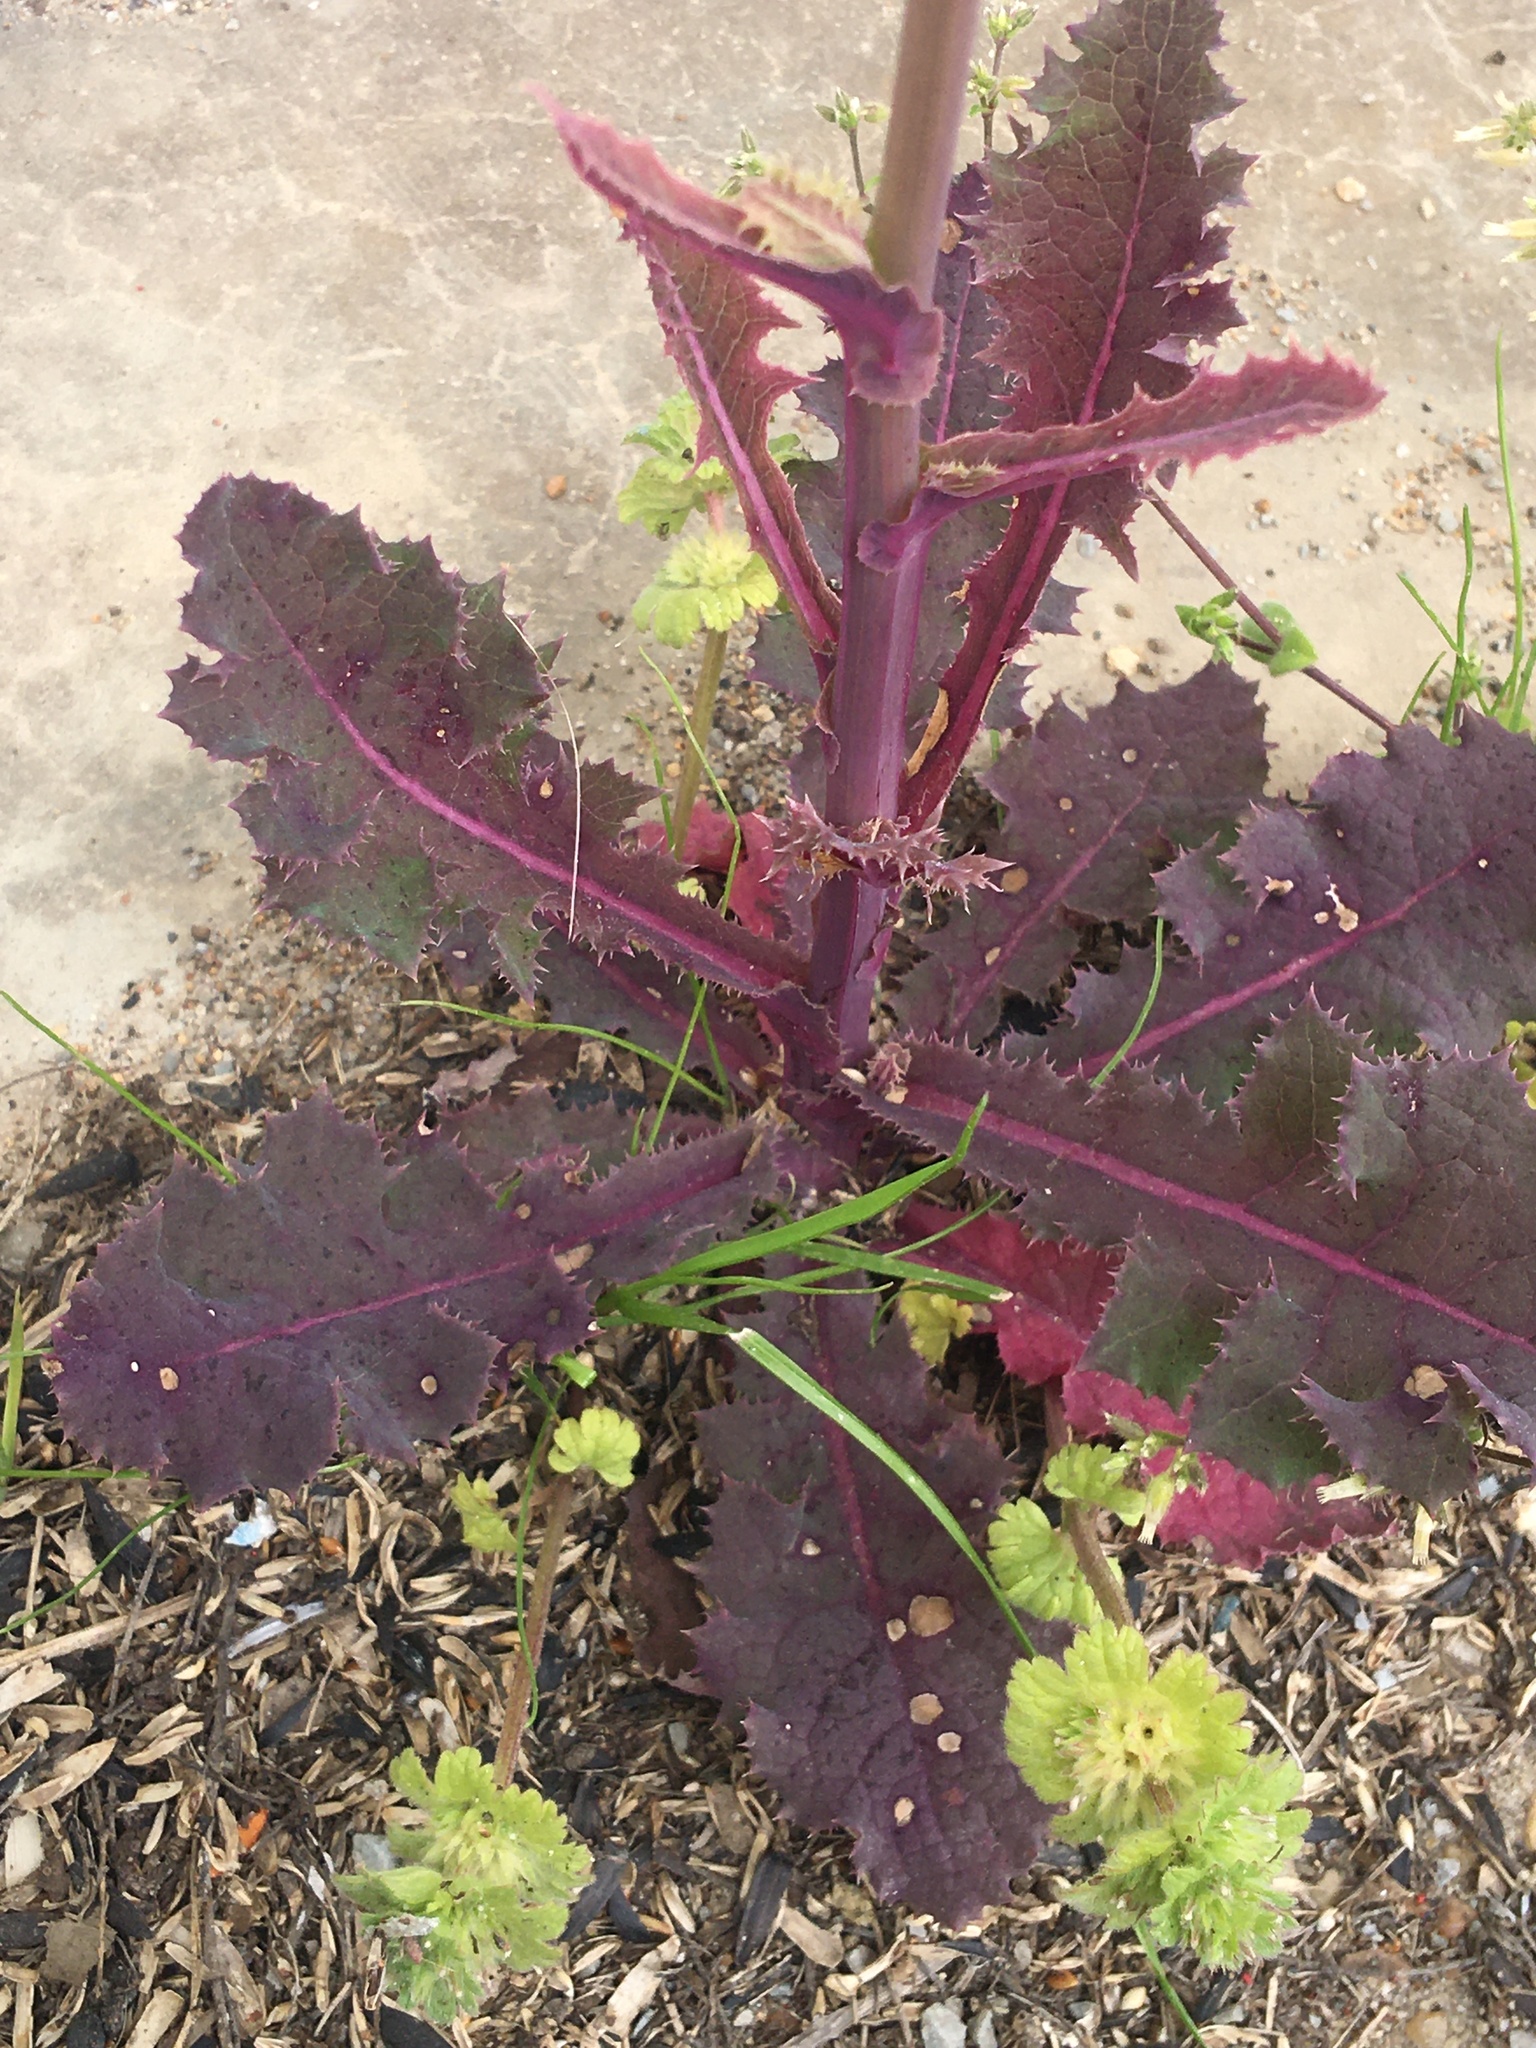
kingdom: Plantae
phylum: Tracheophyta
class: Magnoliopsida
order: Asterales
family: Asteraceae
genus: Sonchus
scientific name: Sonchus asper
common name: Prickly sow-thistle
